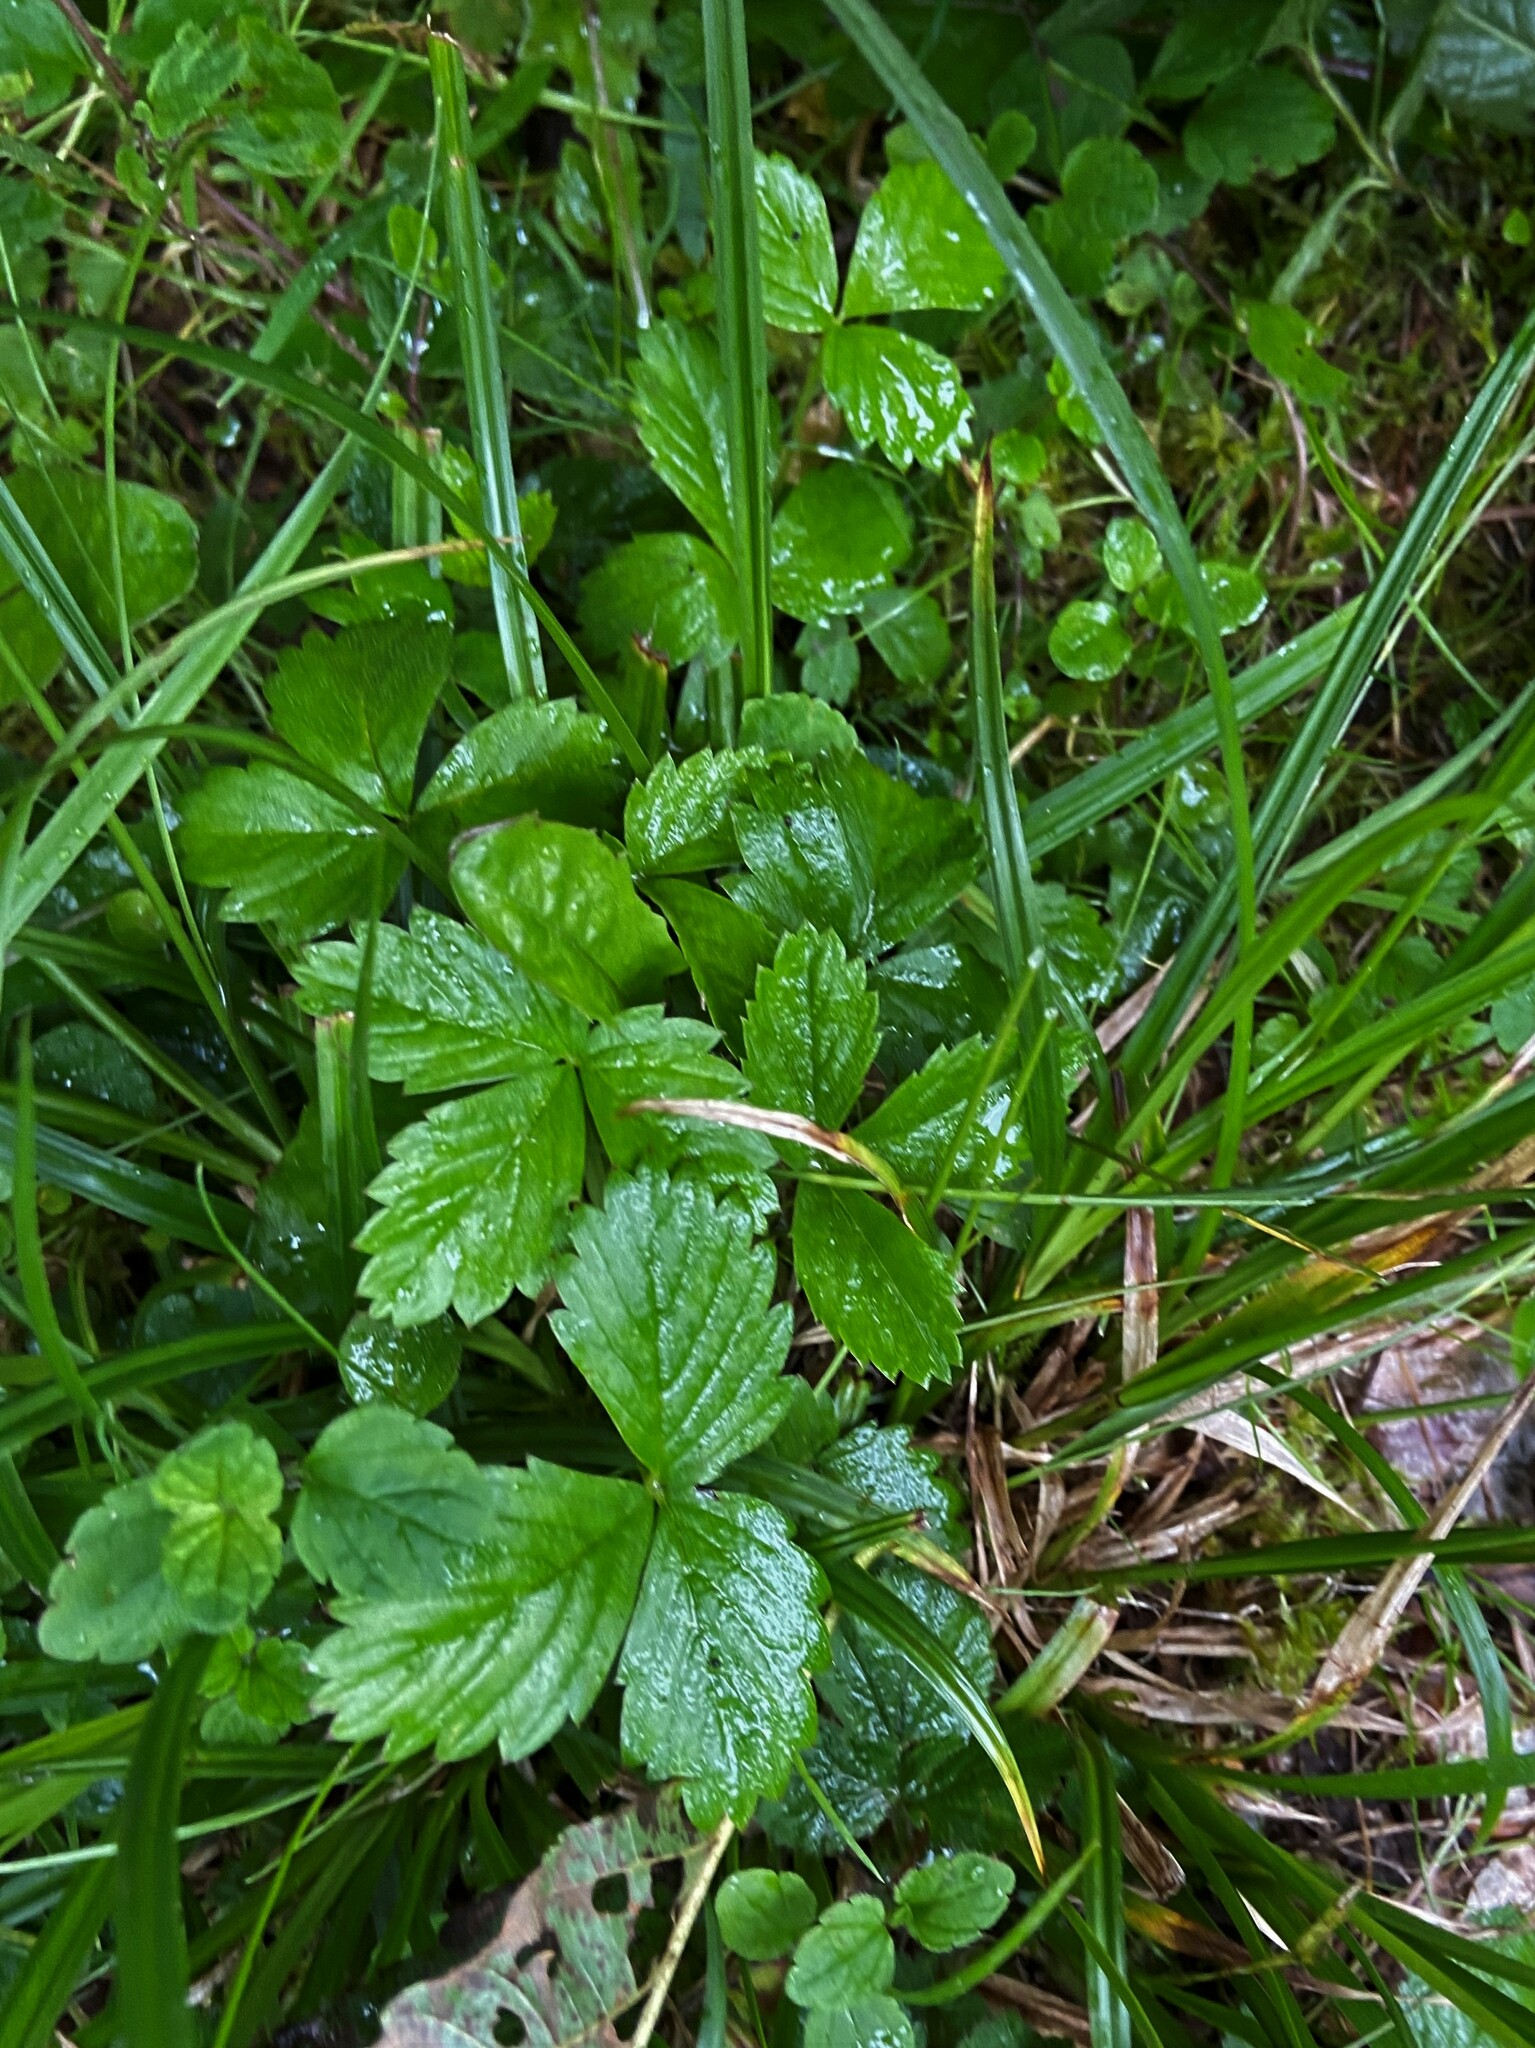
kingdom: Plantae
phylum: Tracheophyta
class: Magnoliopsida
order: Rosales
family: Rosaceae
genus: Fragaria
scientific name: Fragaria vesca
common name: Wild strawberry
